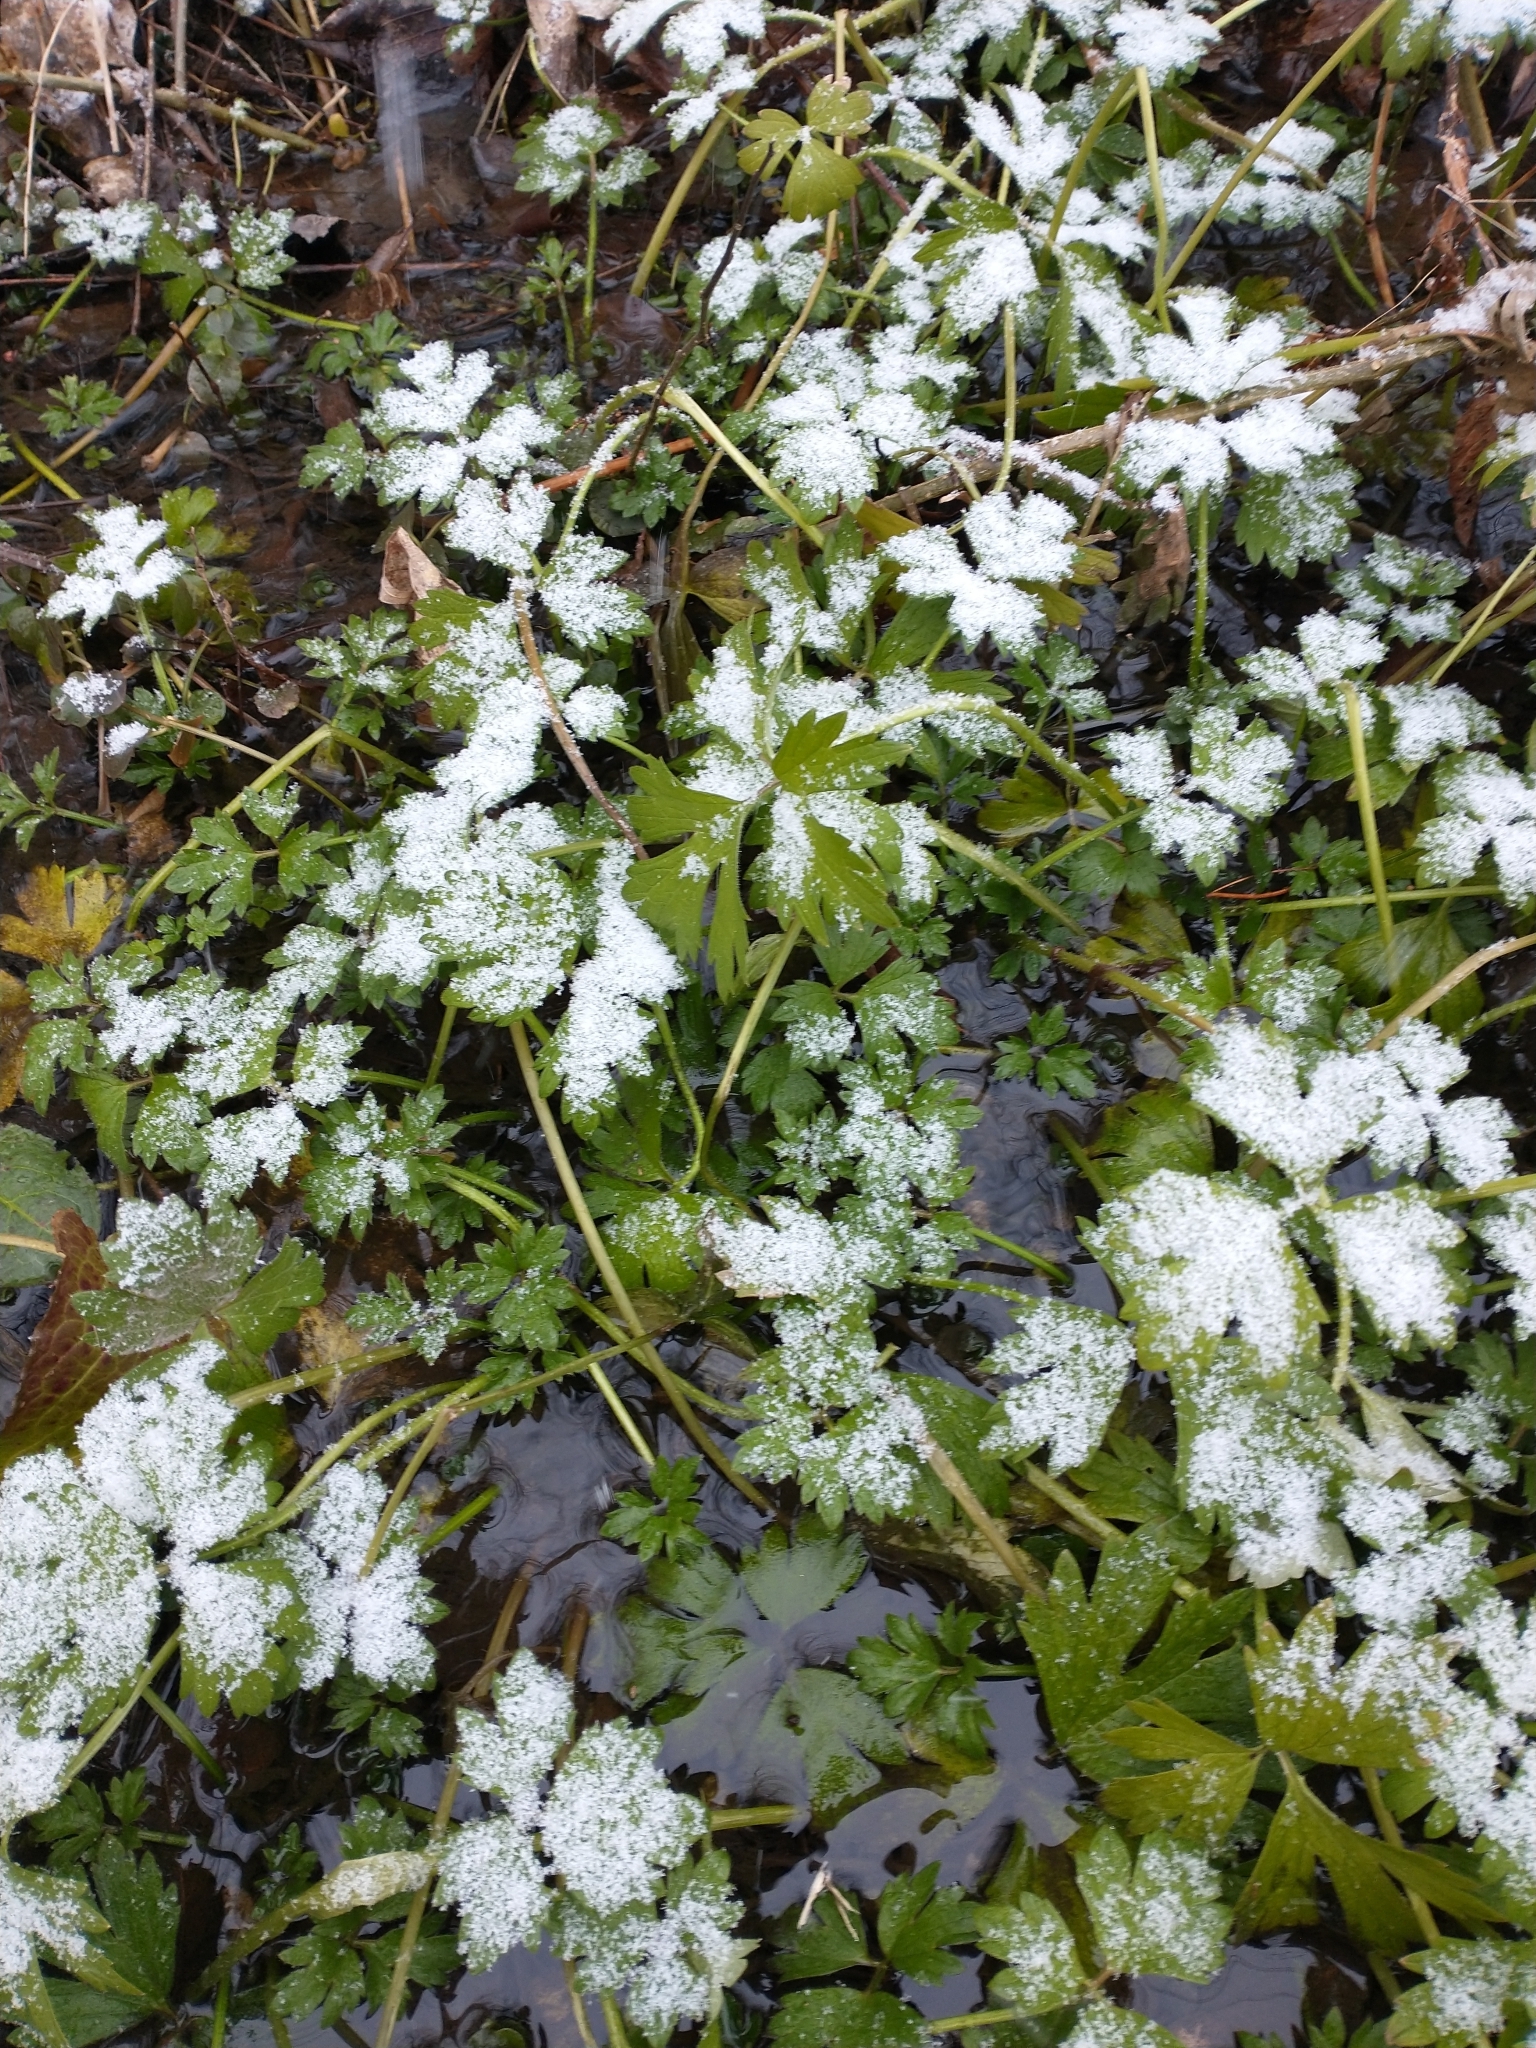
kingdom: Plantae
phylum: Tracheophyta
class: Magnoliopsida
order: Ranunculales
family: Ranunculaceae
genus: Ranunculus
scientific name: Ranunculus hispidus
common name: Bristly buttercup
